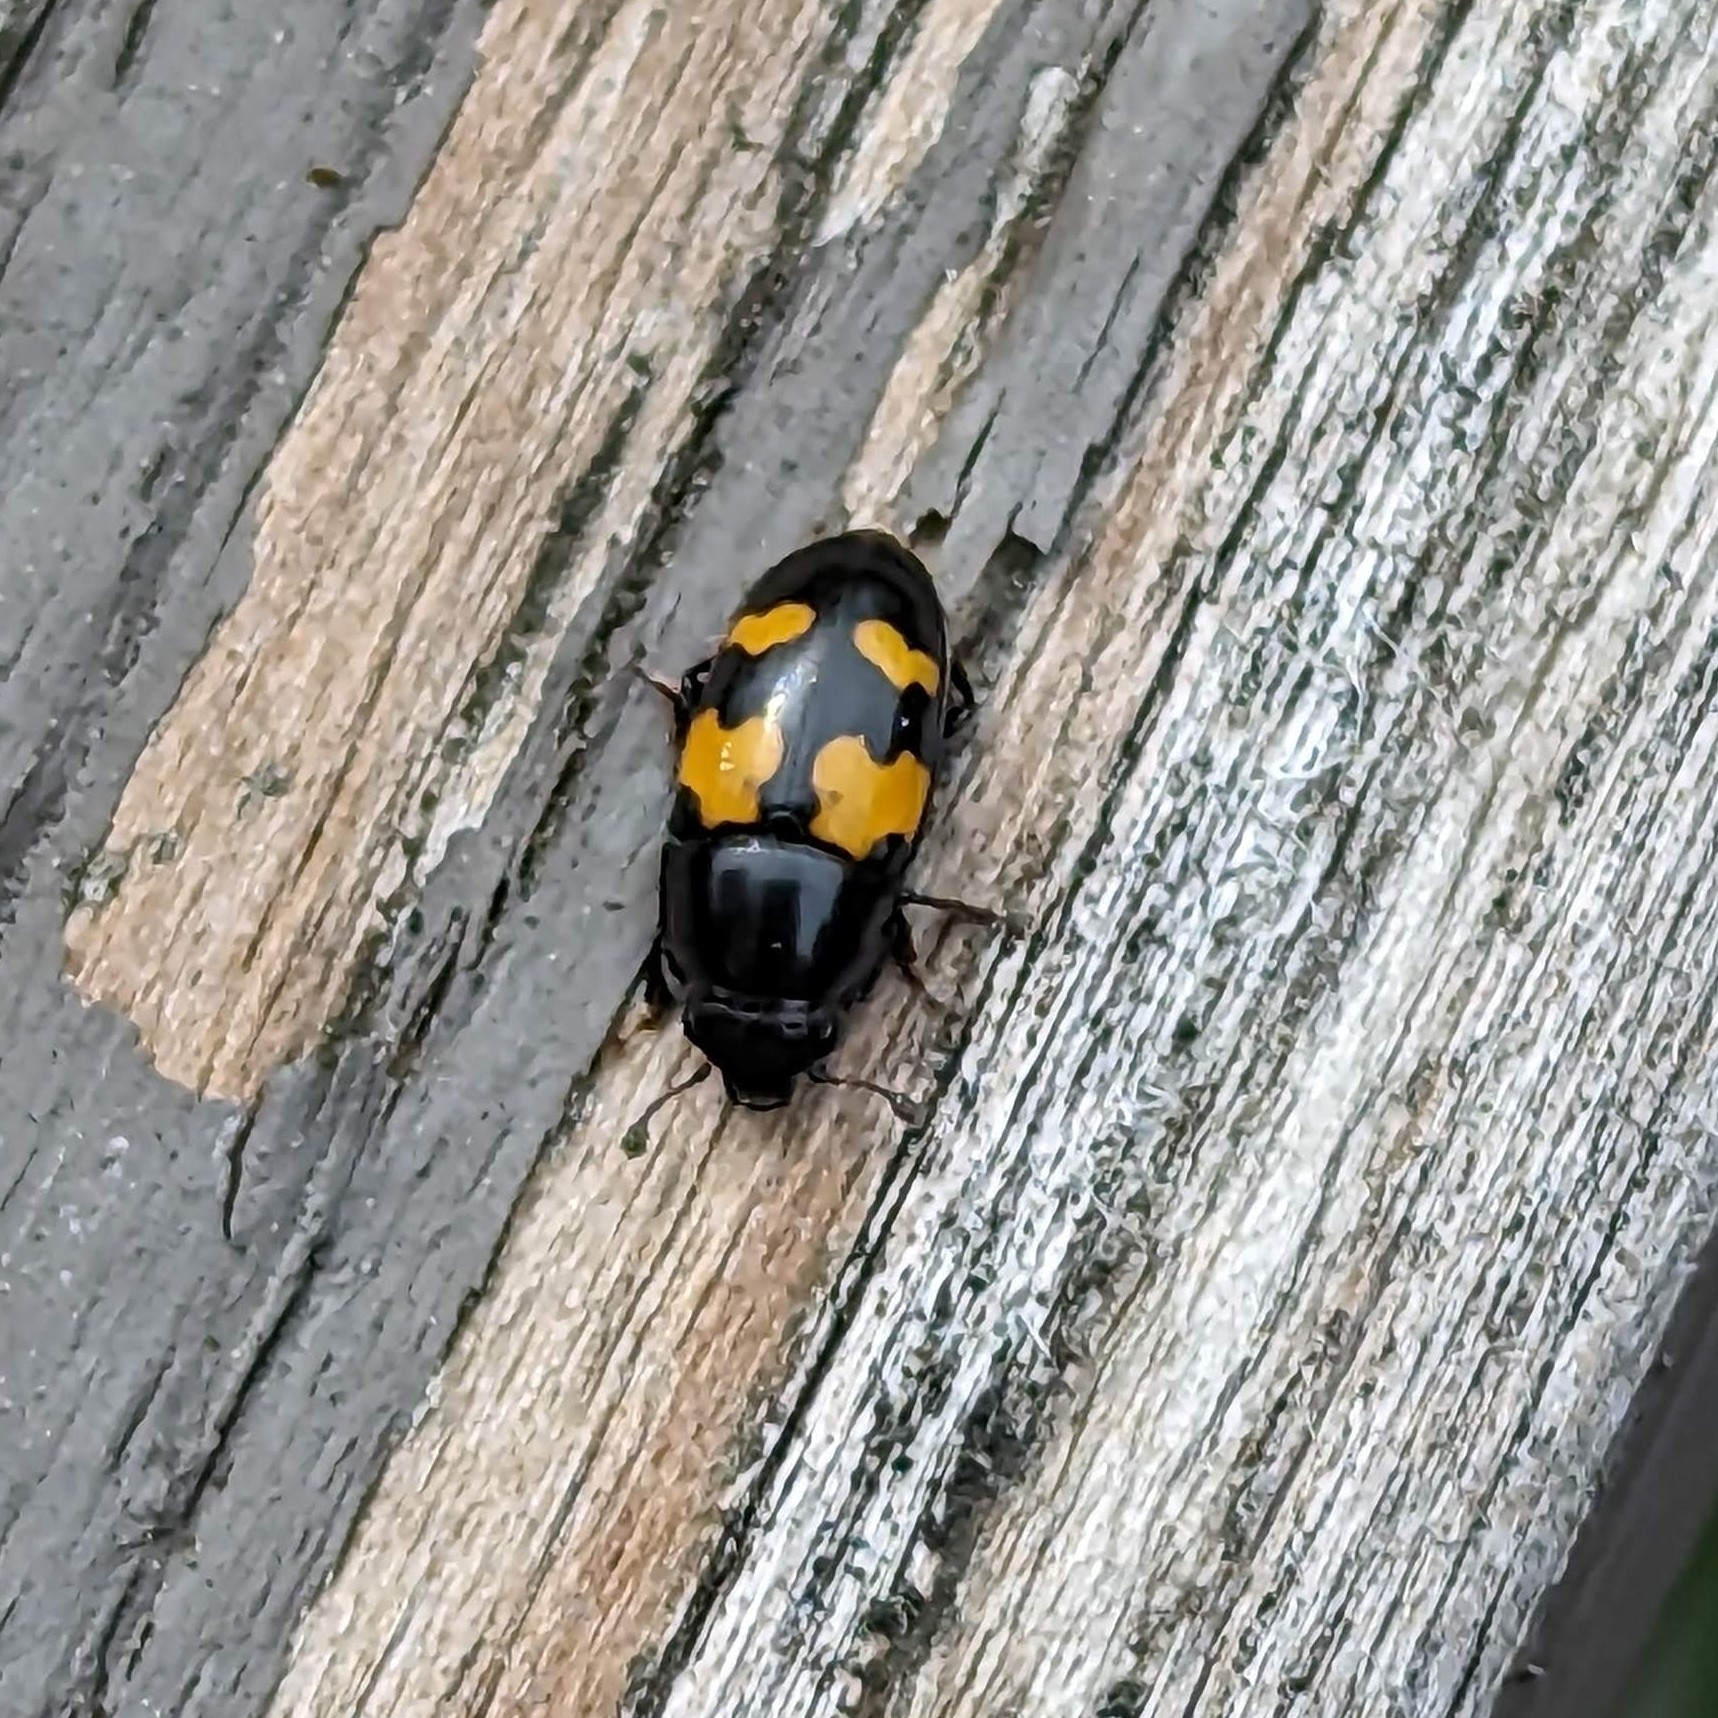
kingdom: Animalia
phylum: Arthropoda
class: Insecta
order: Coleoptera
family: Nitidulidae
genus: Glischrochilus
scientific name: Glischrochilus fasciatus
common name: Picnic beetle
